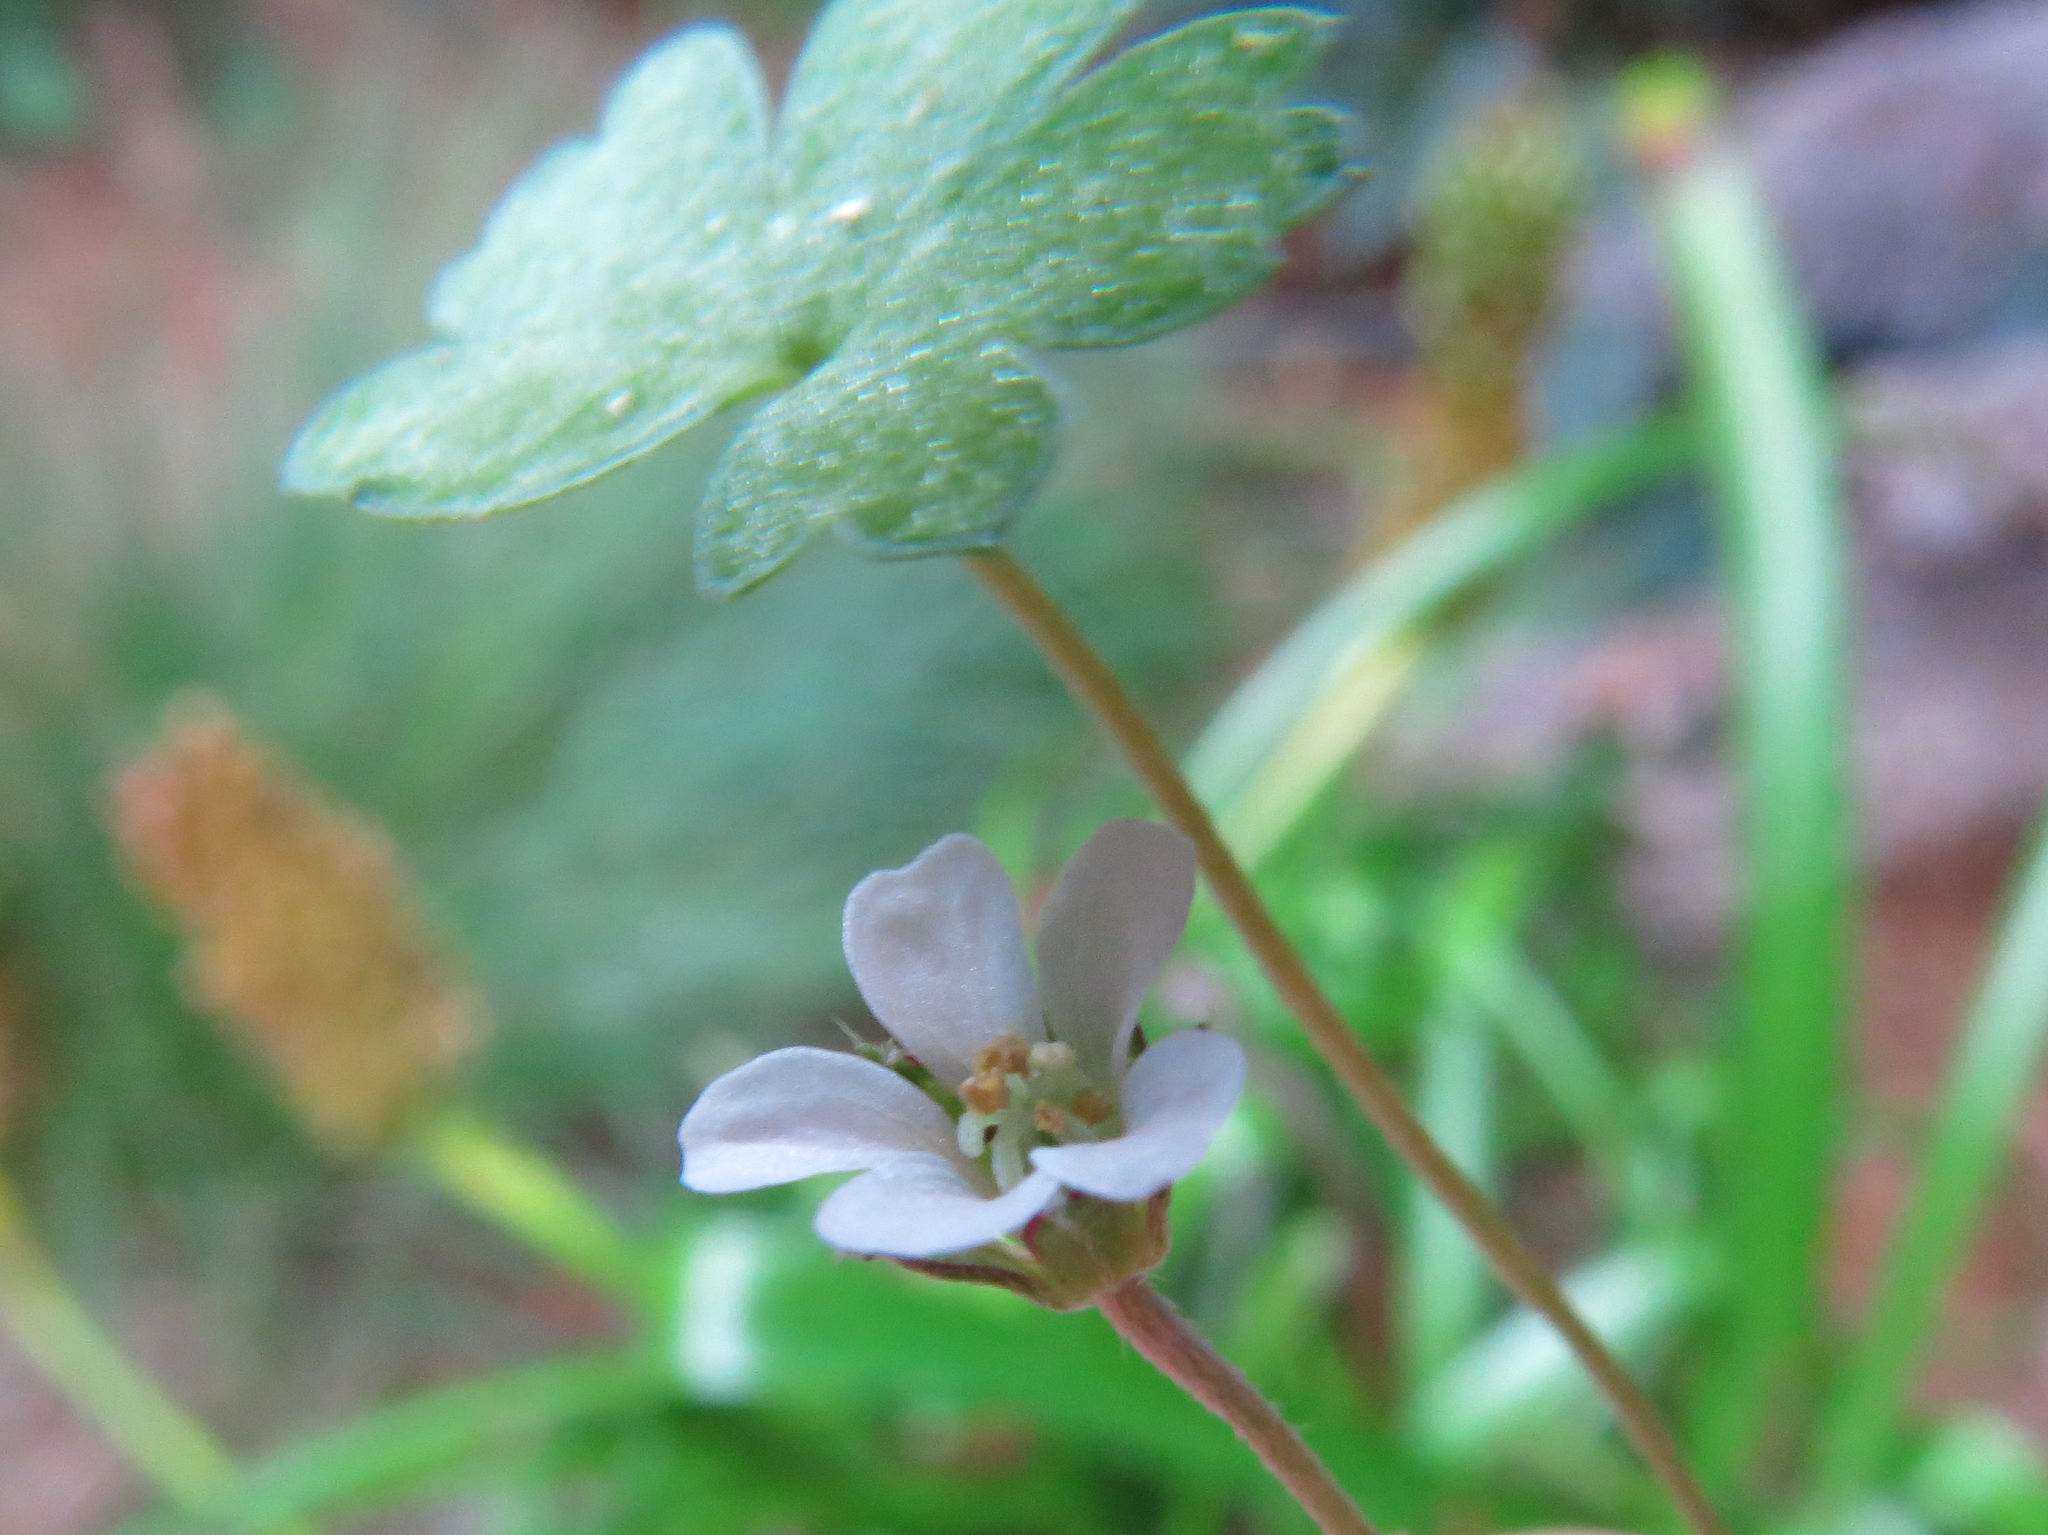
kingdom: Plantae
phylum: Tracheophyta
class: Magnoliopsida
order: Geraniales
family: Geraniaceae
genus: Geranium
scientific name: Geranium
